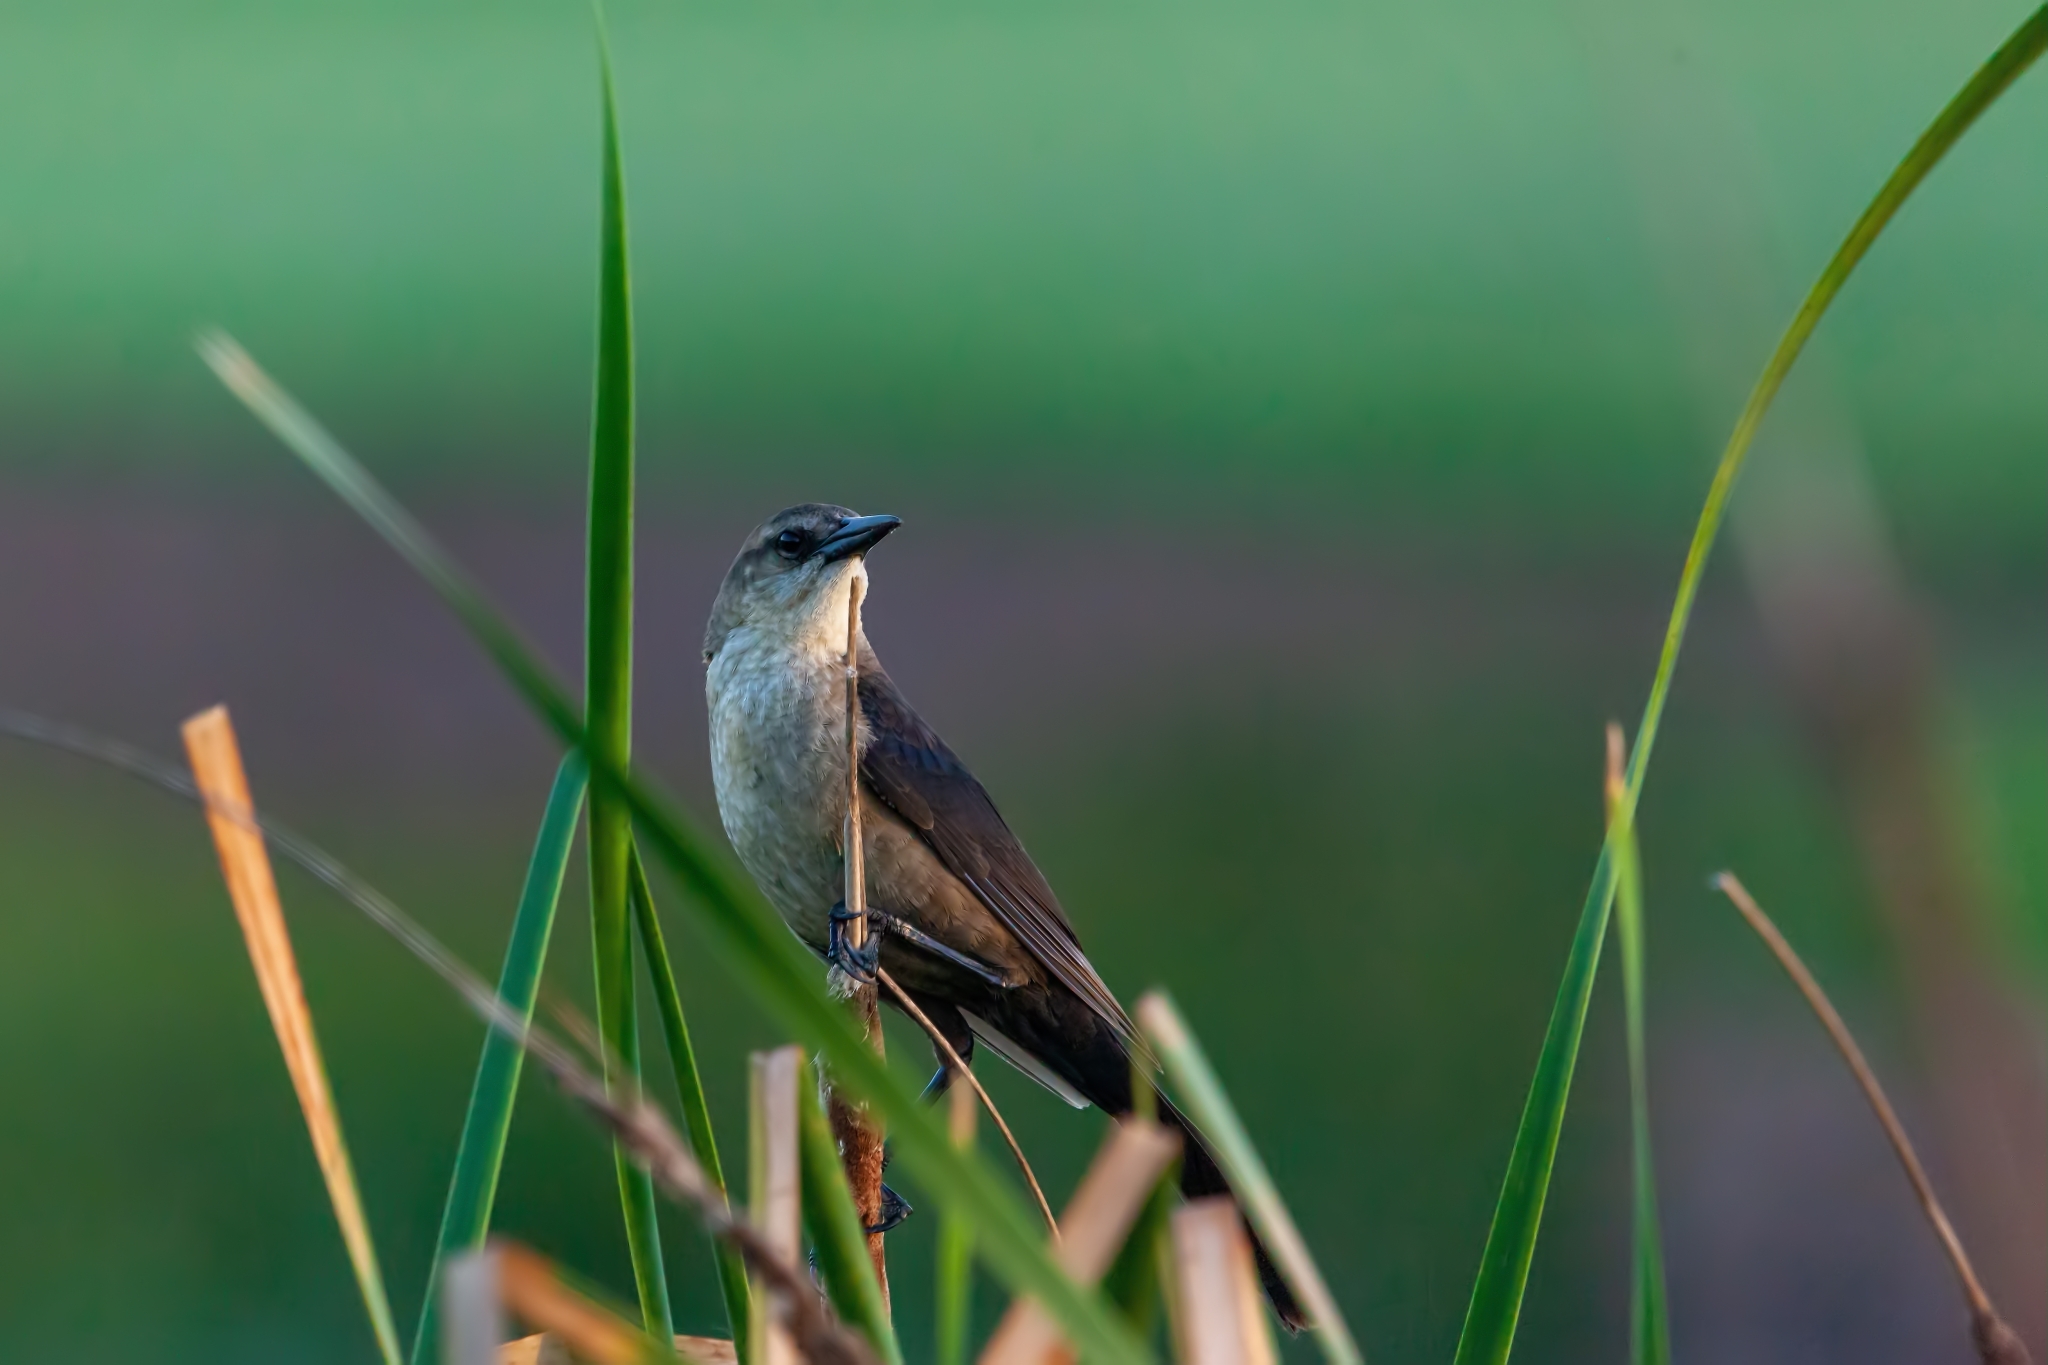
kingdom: Animalia
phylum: Chordata
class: Aves
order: Passeriformes
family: Icteridae
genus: Quiscalus
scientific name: Quiscalus major
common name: Boat-tailed grackle
